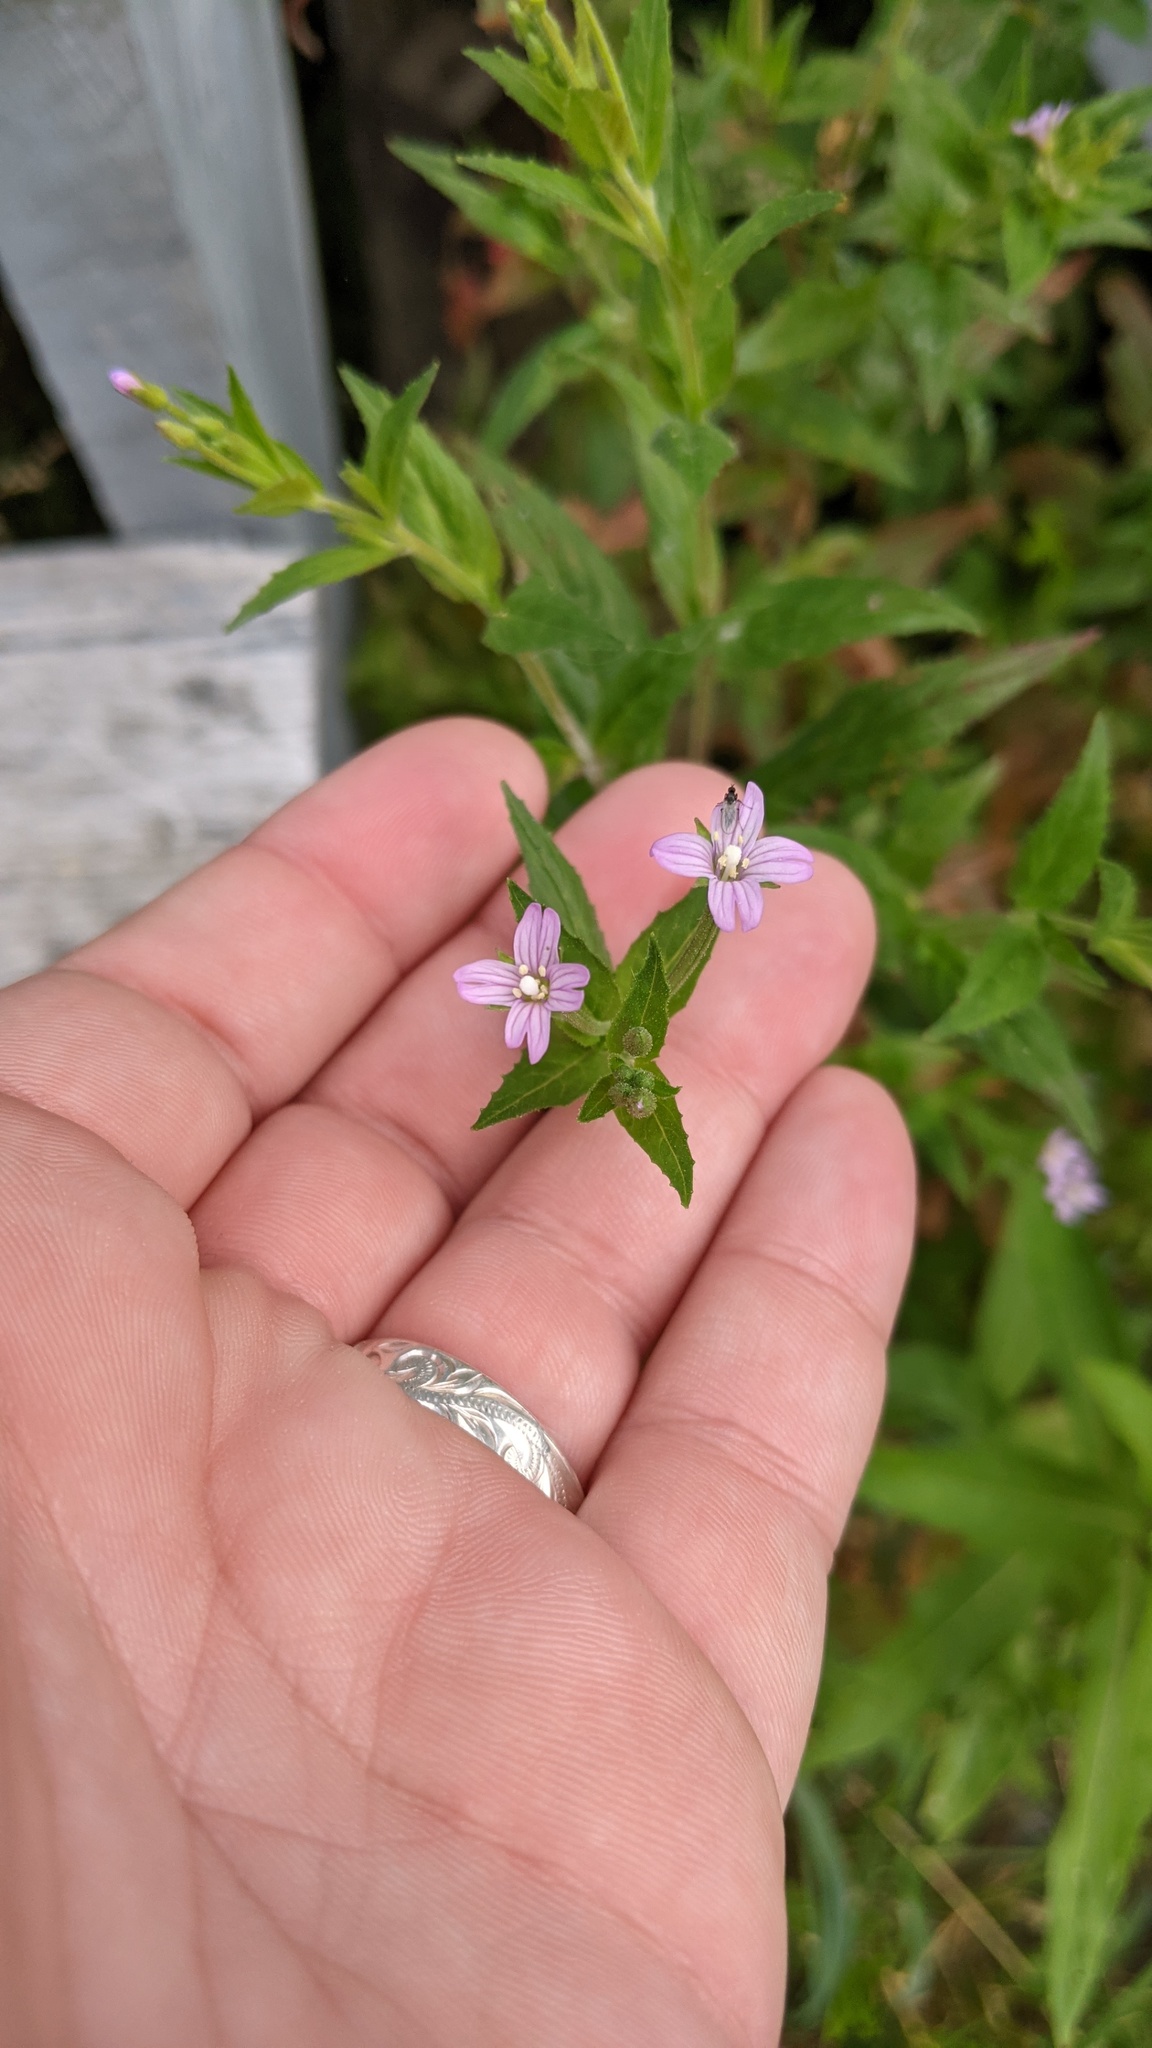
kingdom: Plantae
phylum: Tracheophyta
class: Magnoliopsida
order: Myrtales
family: Onagraceae
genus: Epilobium
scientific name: Epilobium ciliatum
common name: American willowherb
